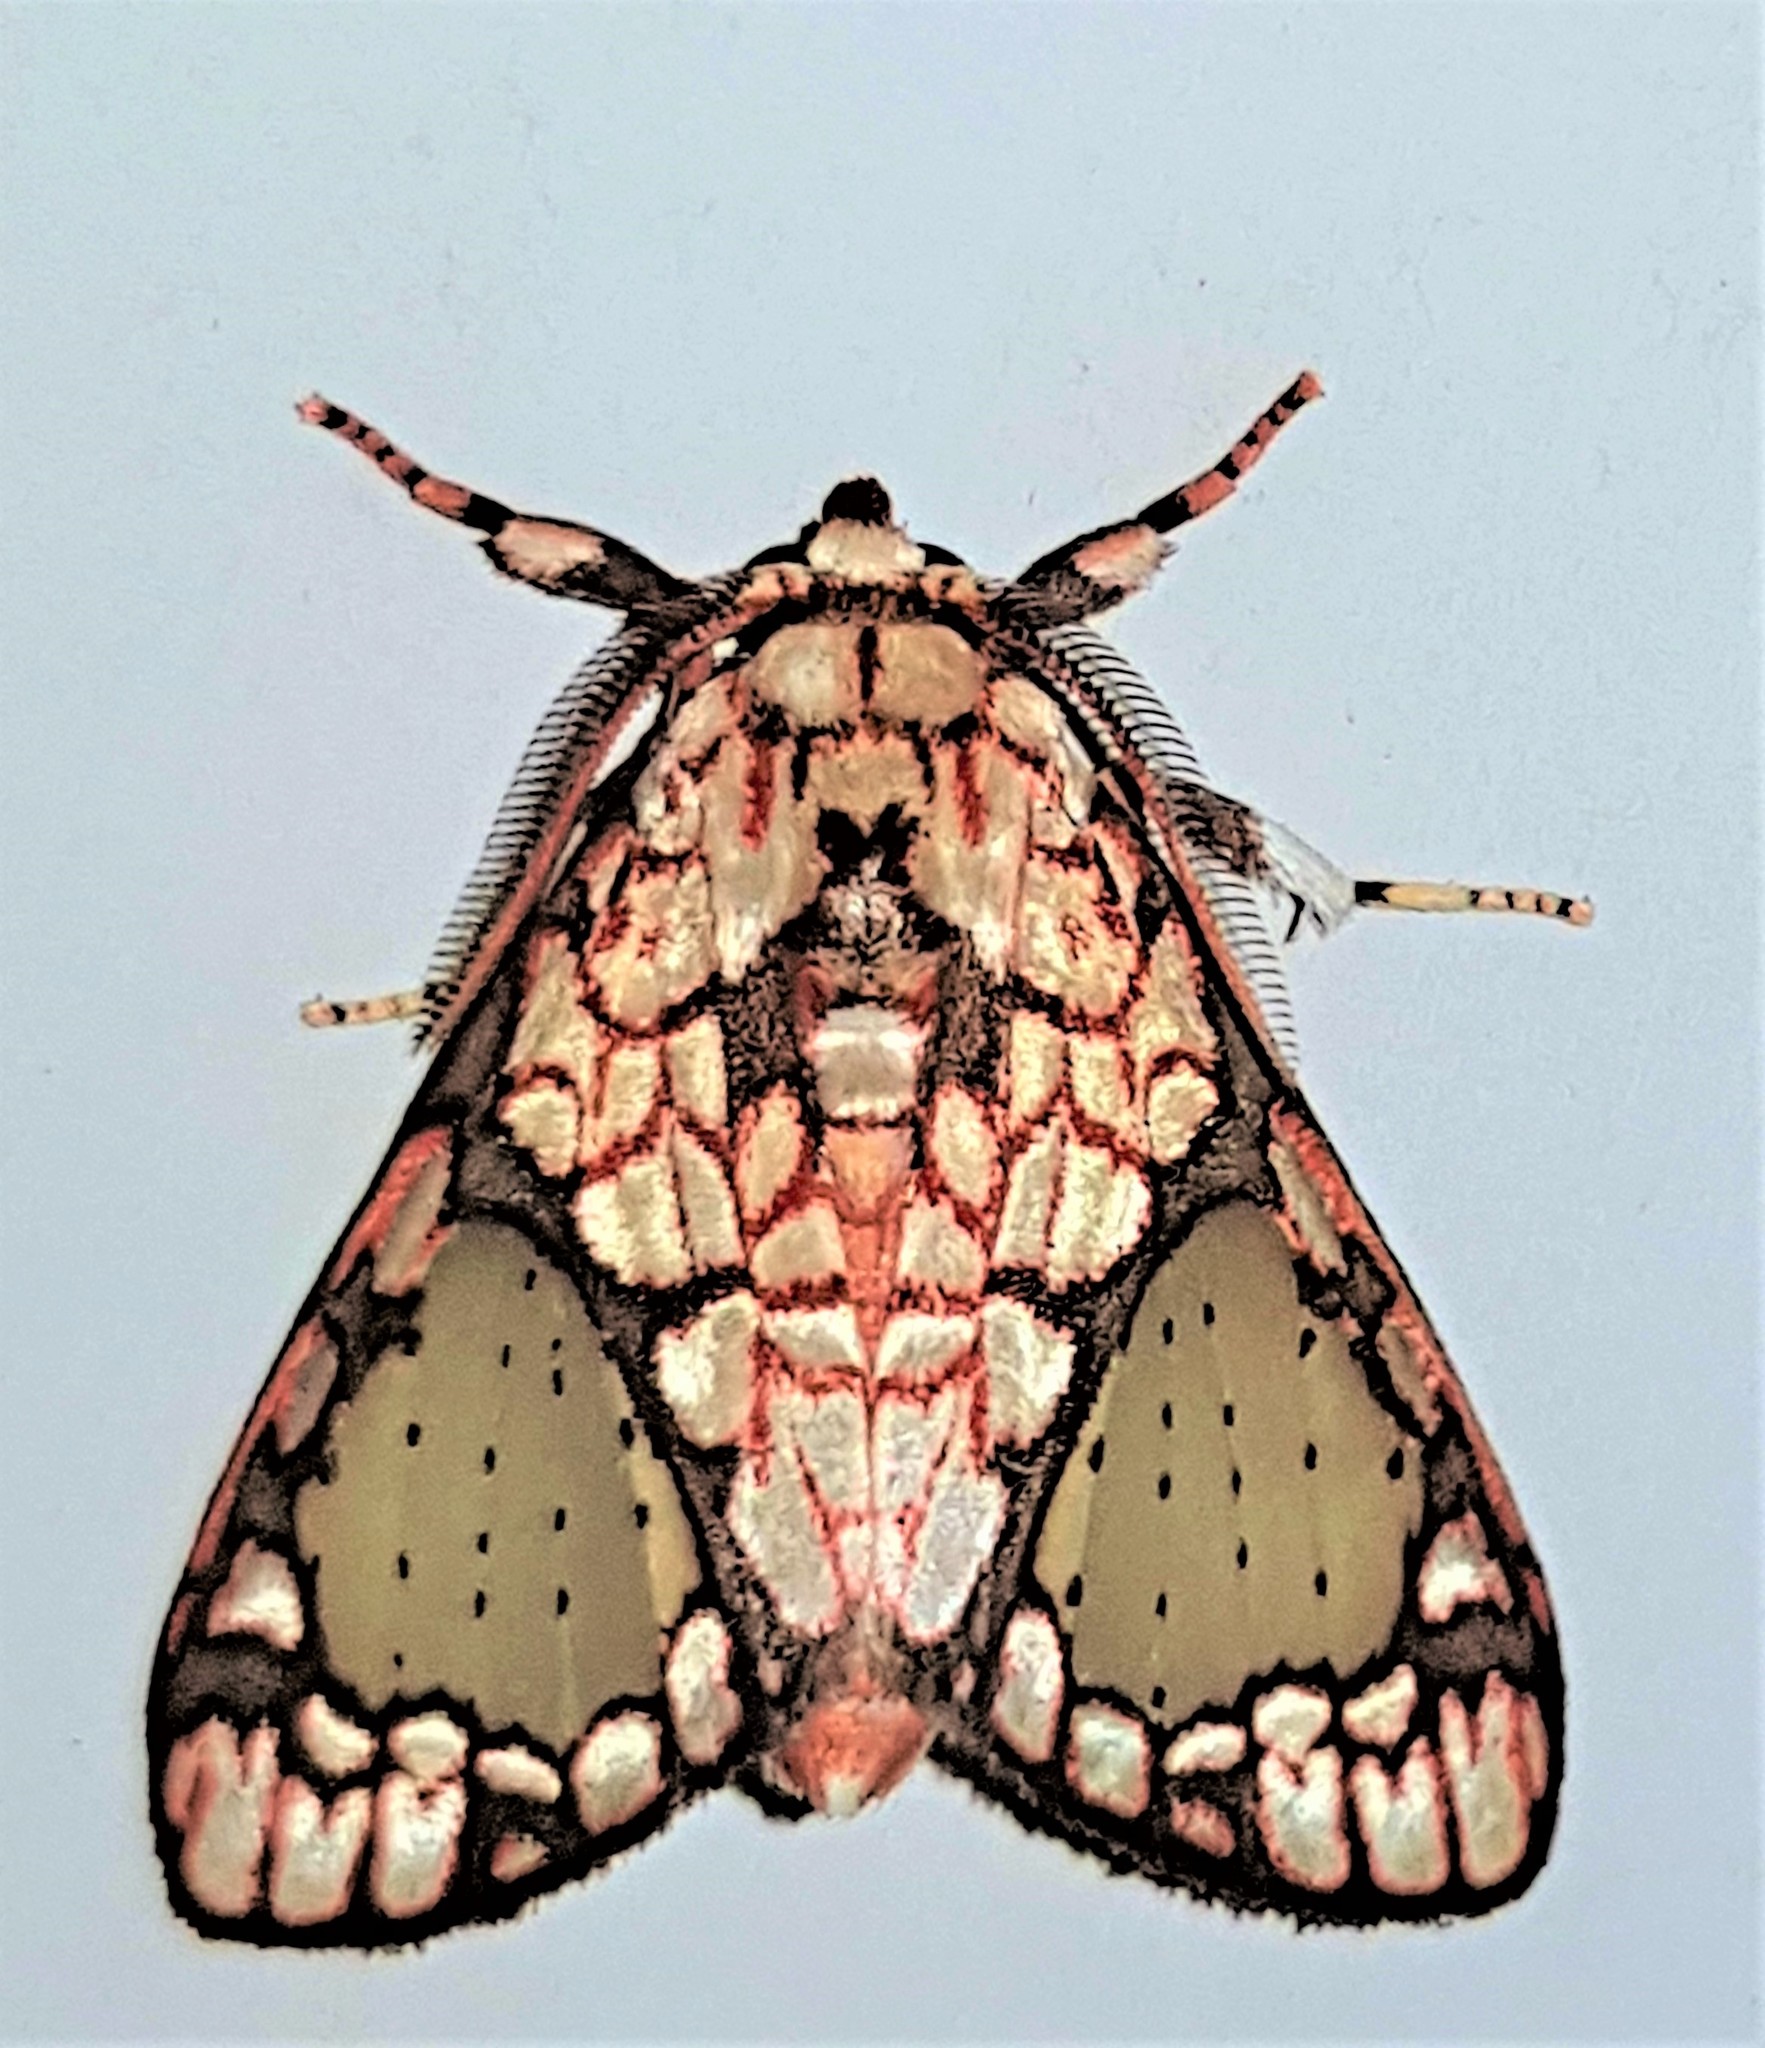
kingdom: Animalia
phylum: Arthropoda
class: Insecta
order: Lepidoptera
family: Erebidae
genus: Azatrephes
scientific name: Azatrephes paradisea
